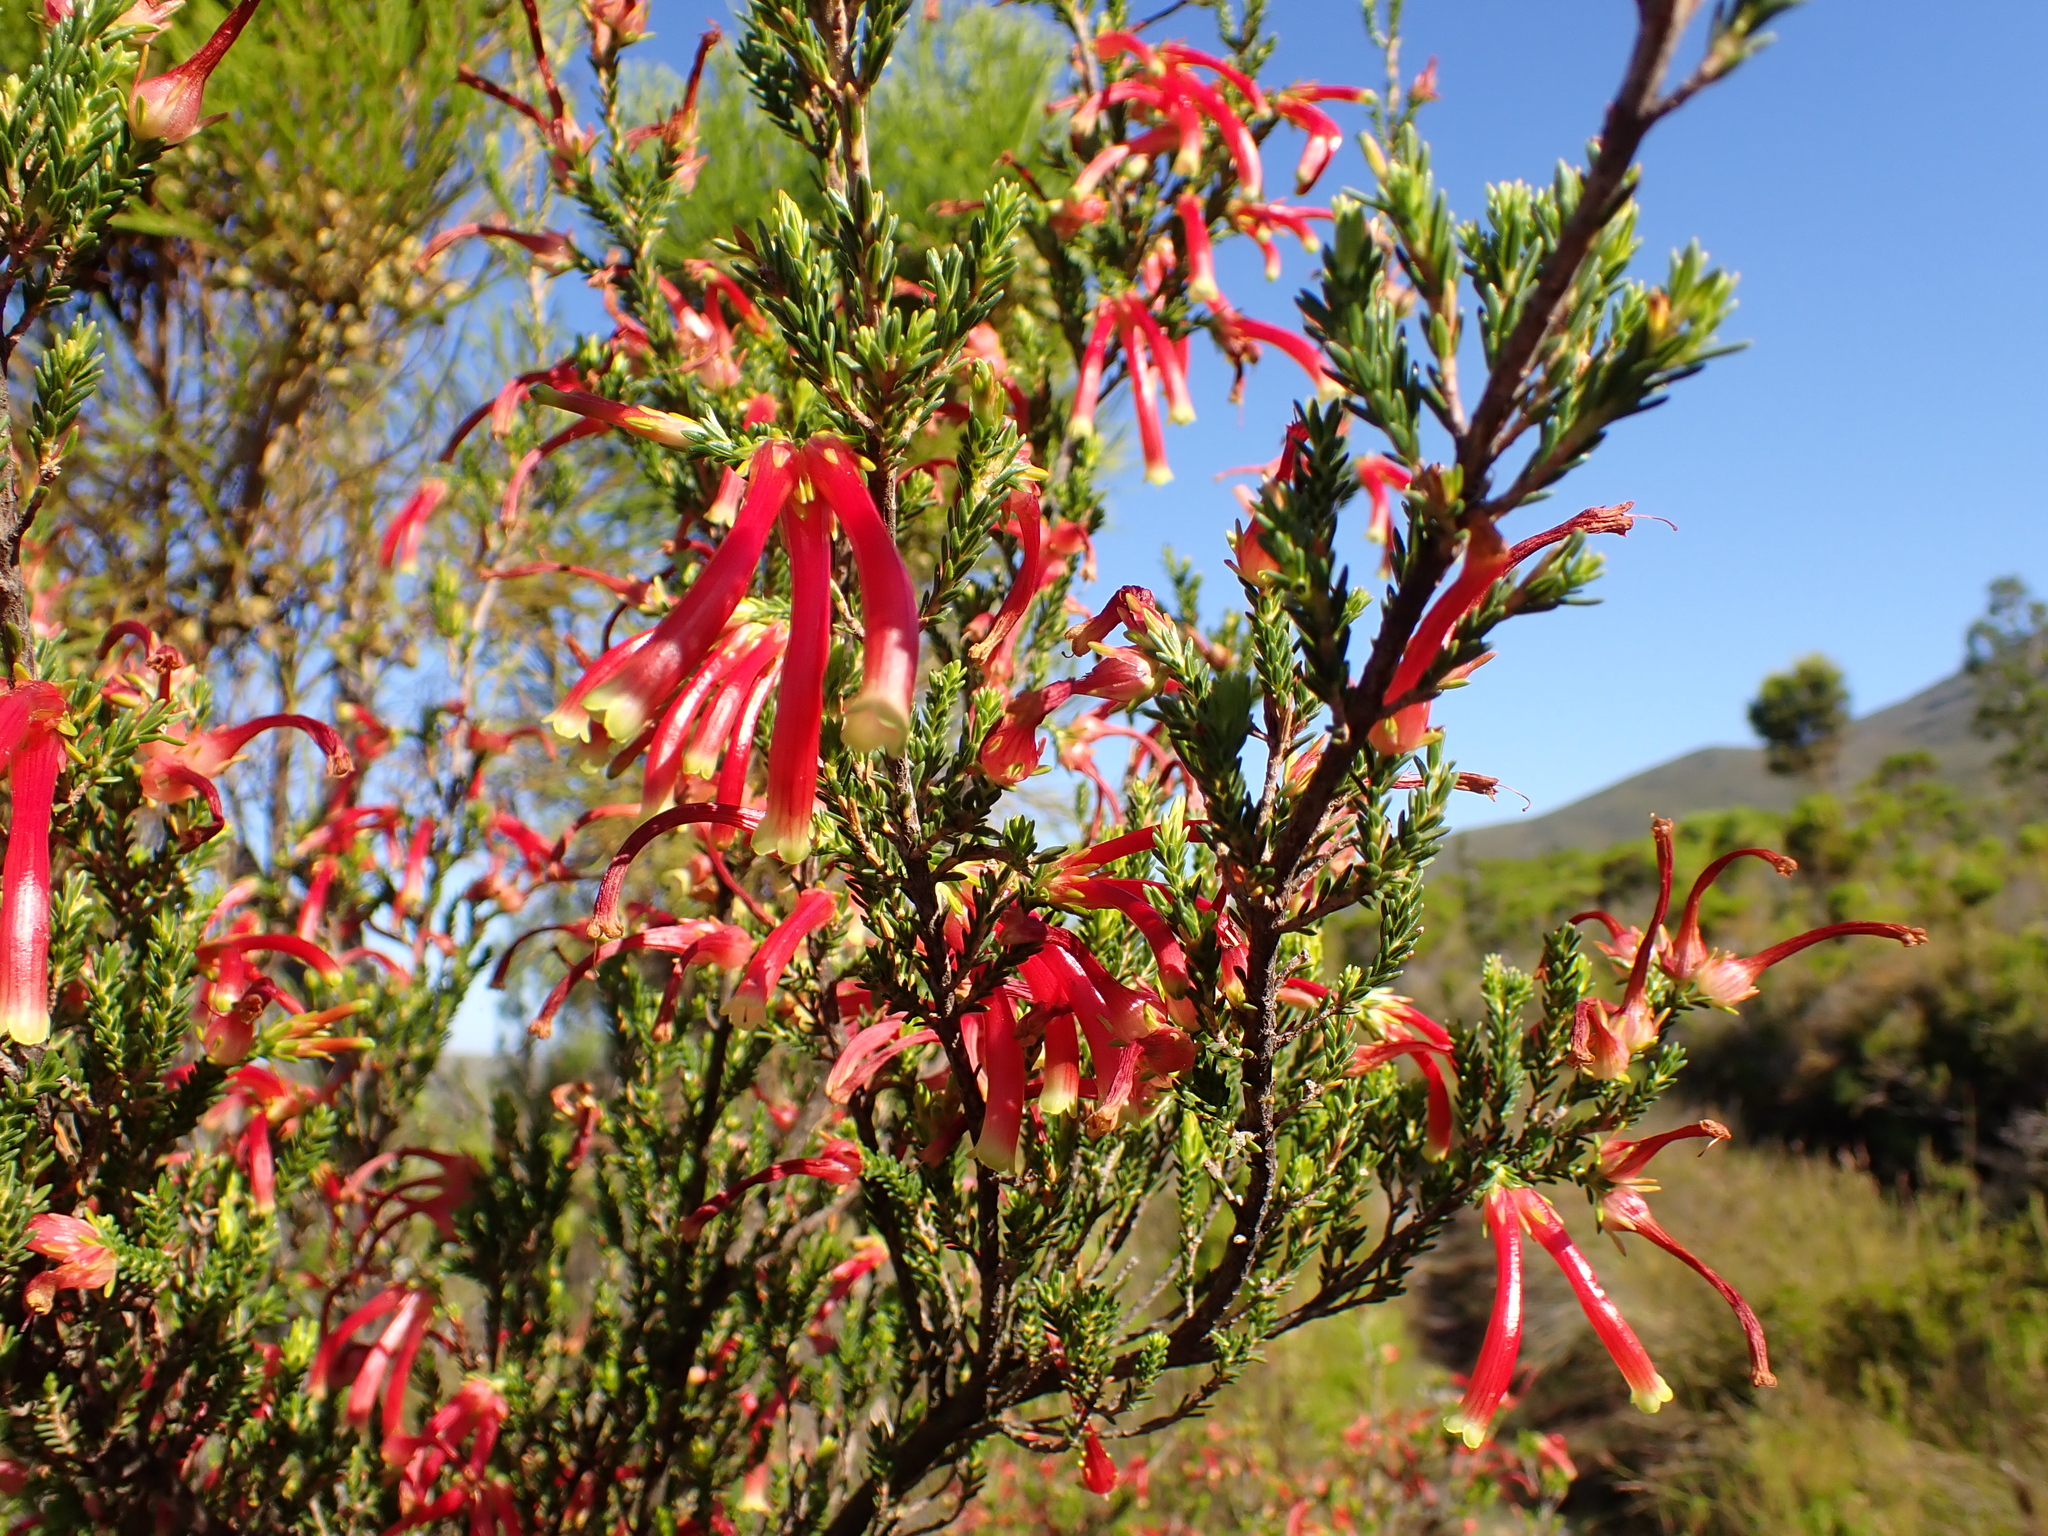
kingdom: Plantae
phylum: Tracheophyta
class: Magnoliopsida
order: Ericales
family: Ericaceae
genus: Erica
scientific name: Erica versicolor
